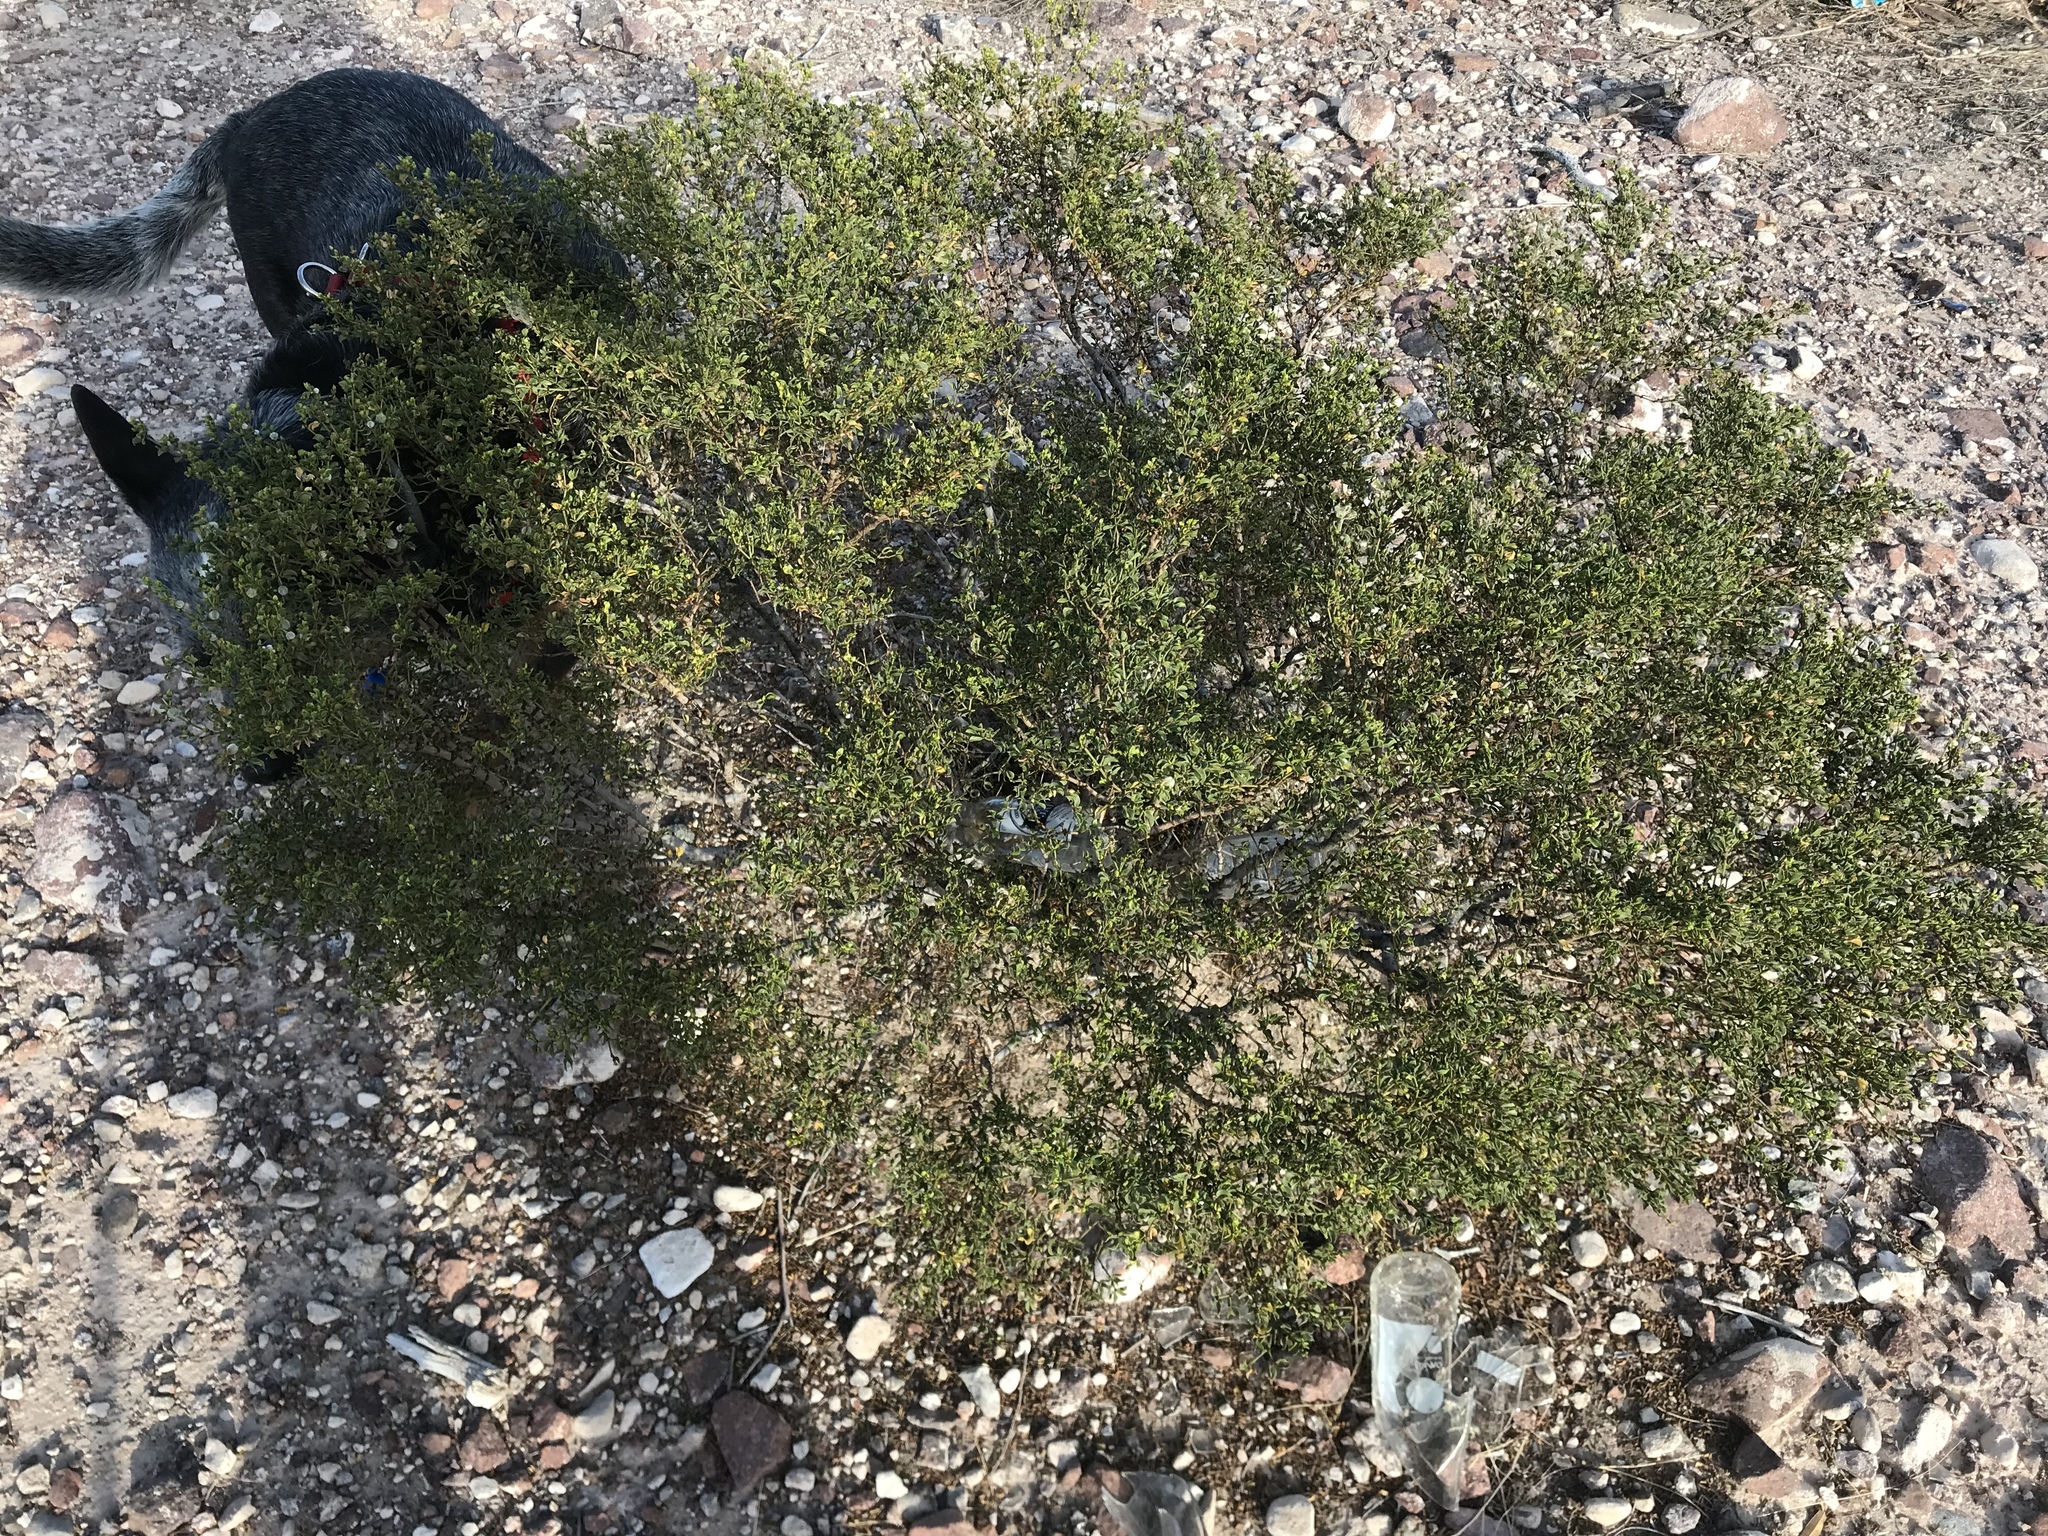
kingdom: Plantae
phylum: Tracheophyta
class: Magnoliopsida
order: Zygophyllales
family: Zygophyllaceae
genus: Larrea
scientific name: Larrea tridentata
